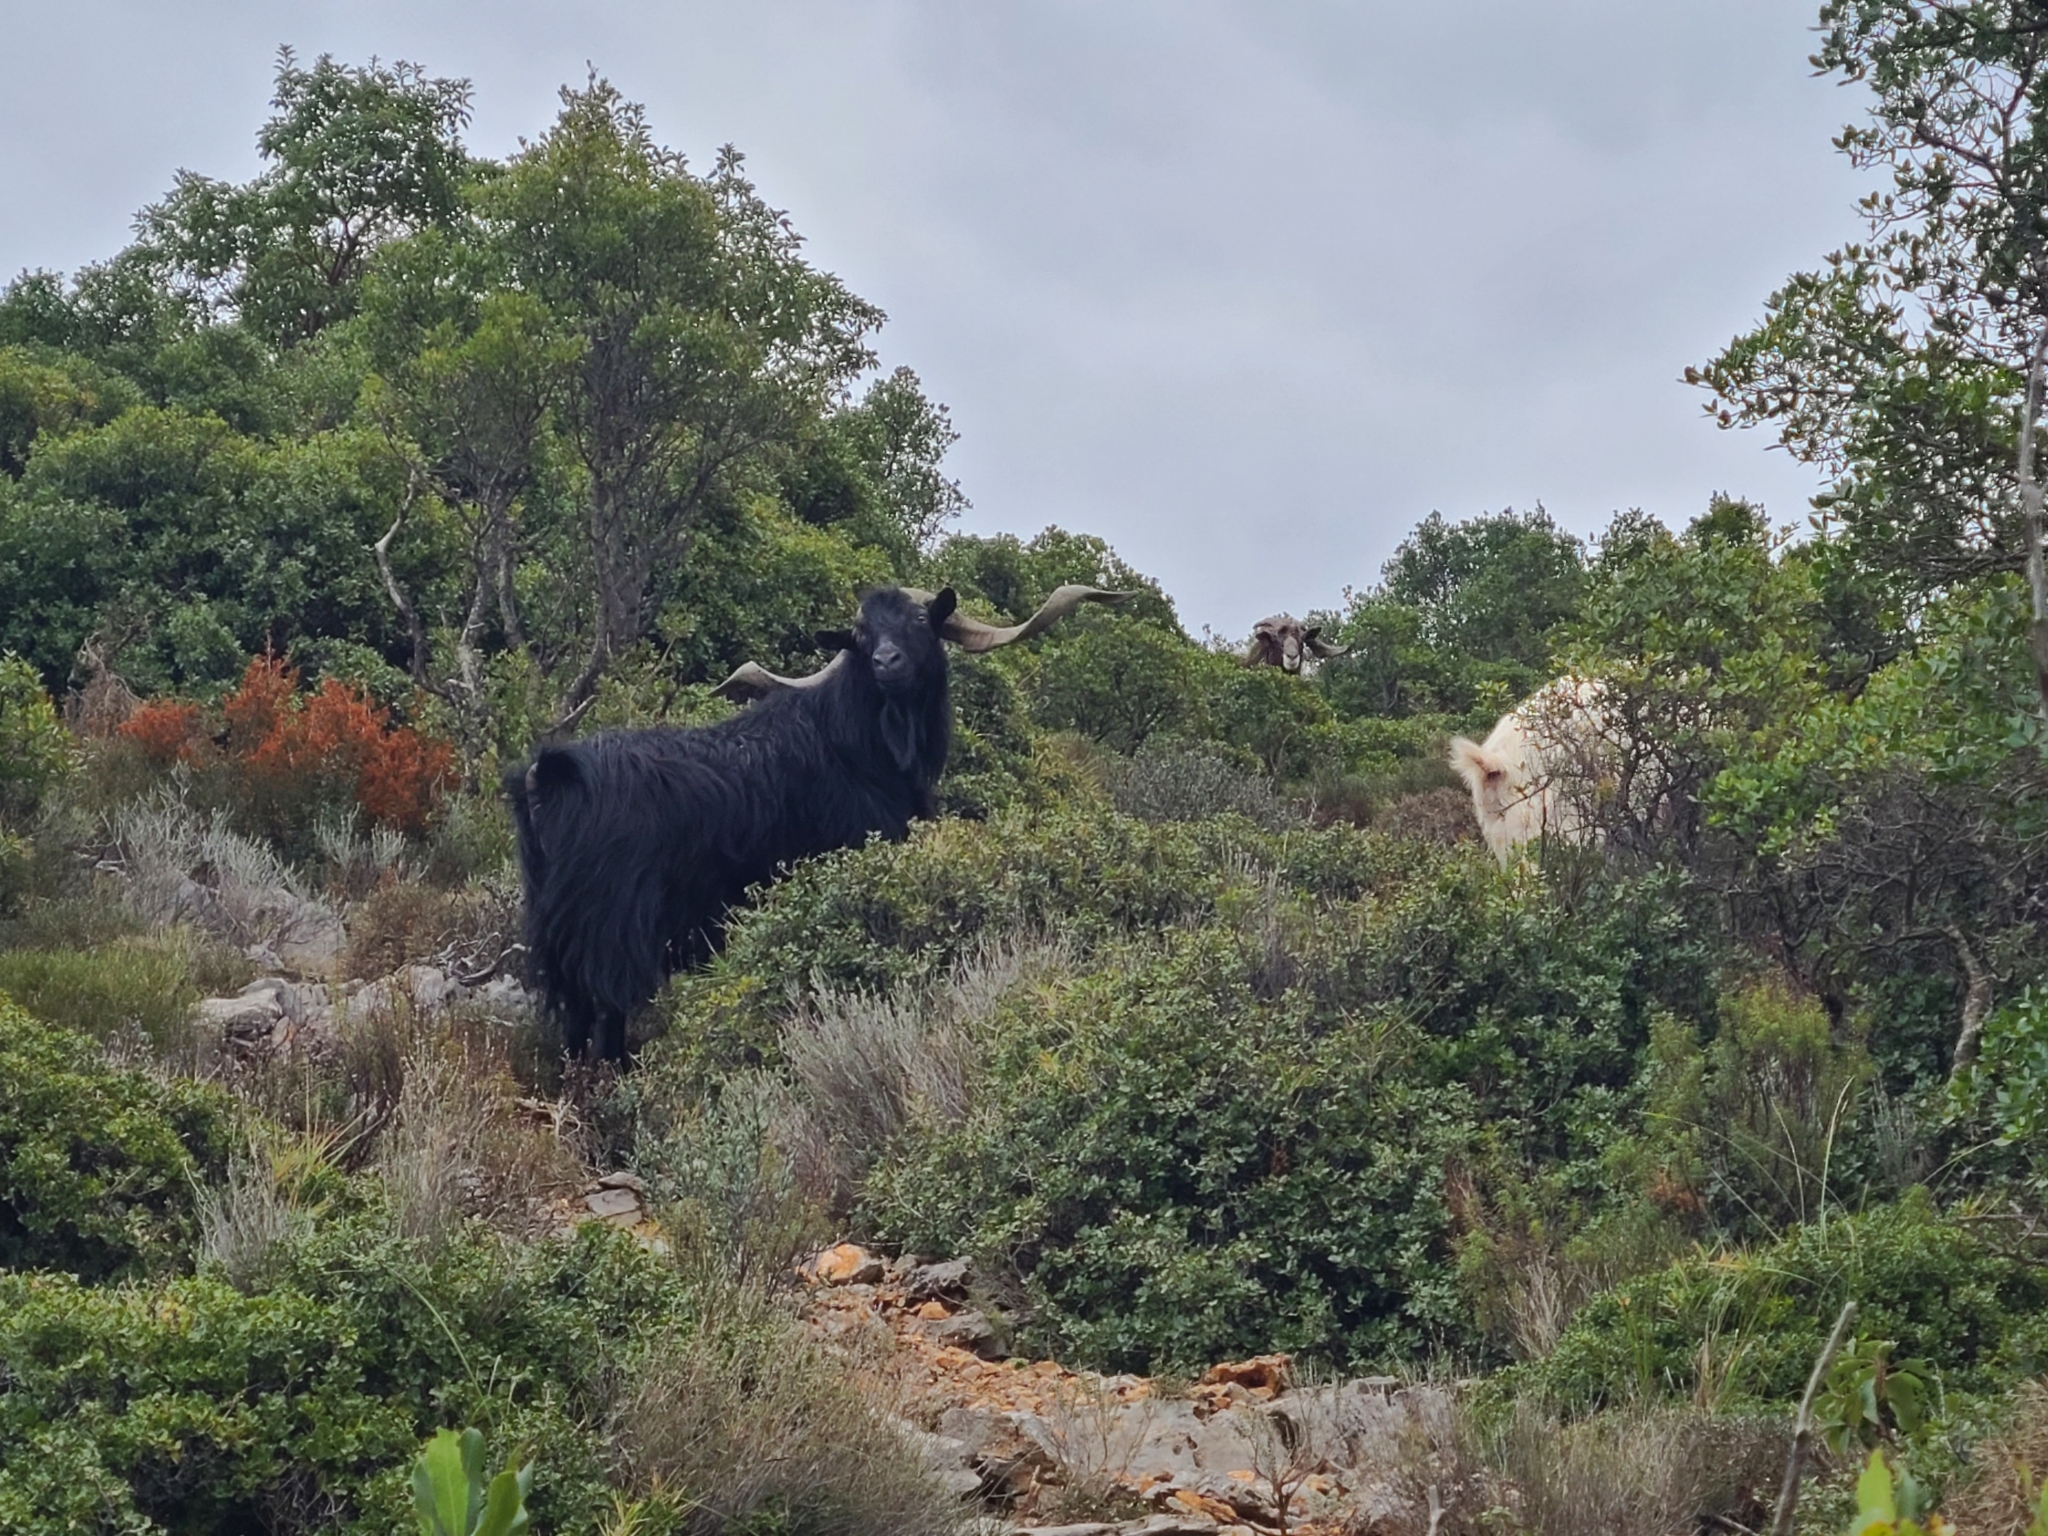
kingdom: Animalia
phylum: Chordata
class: Mammalia
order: Artiodactyla
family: Bovidae
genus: Capra
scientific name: Capra hircus
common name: Domestic goat
